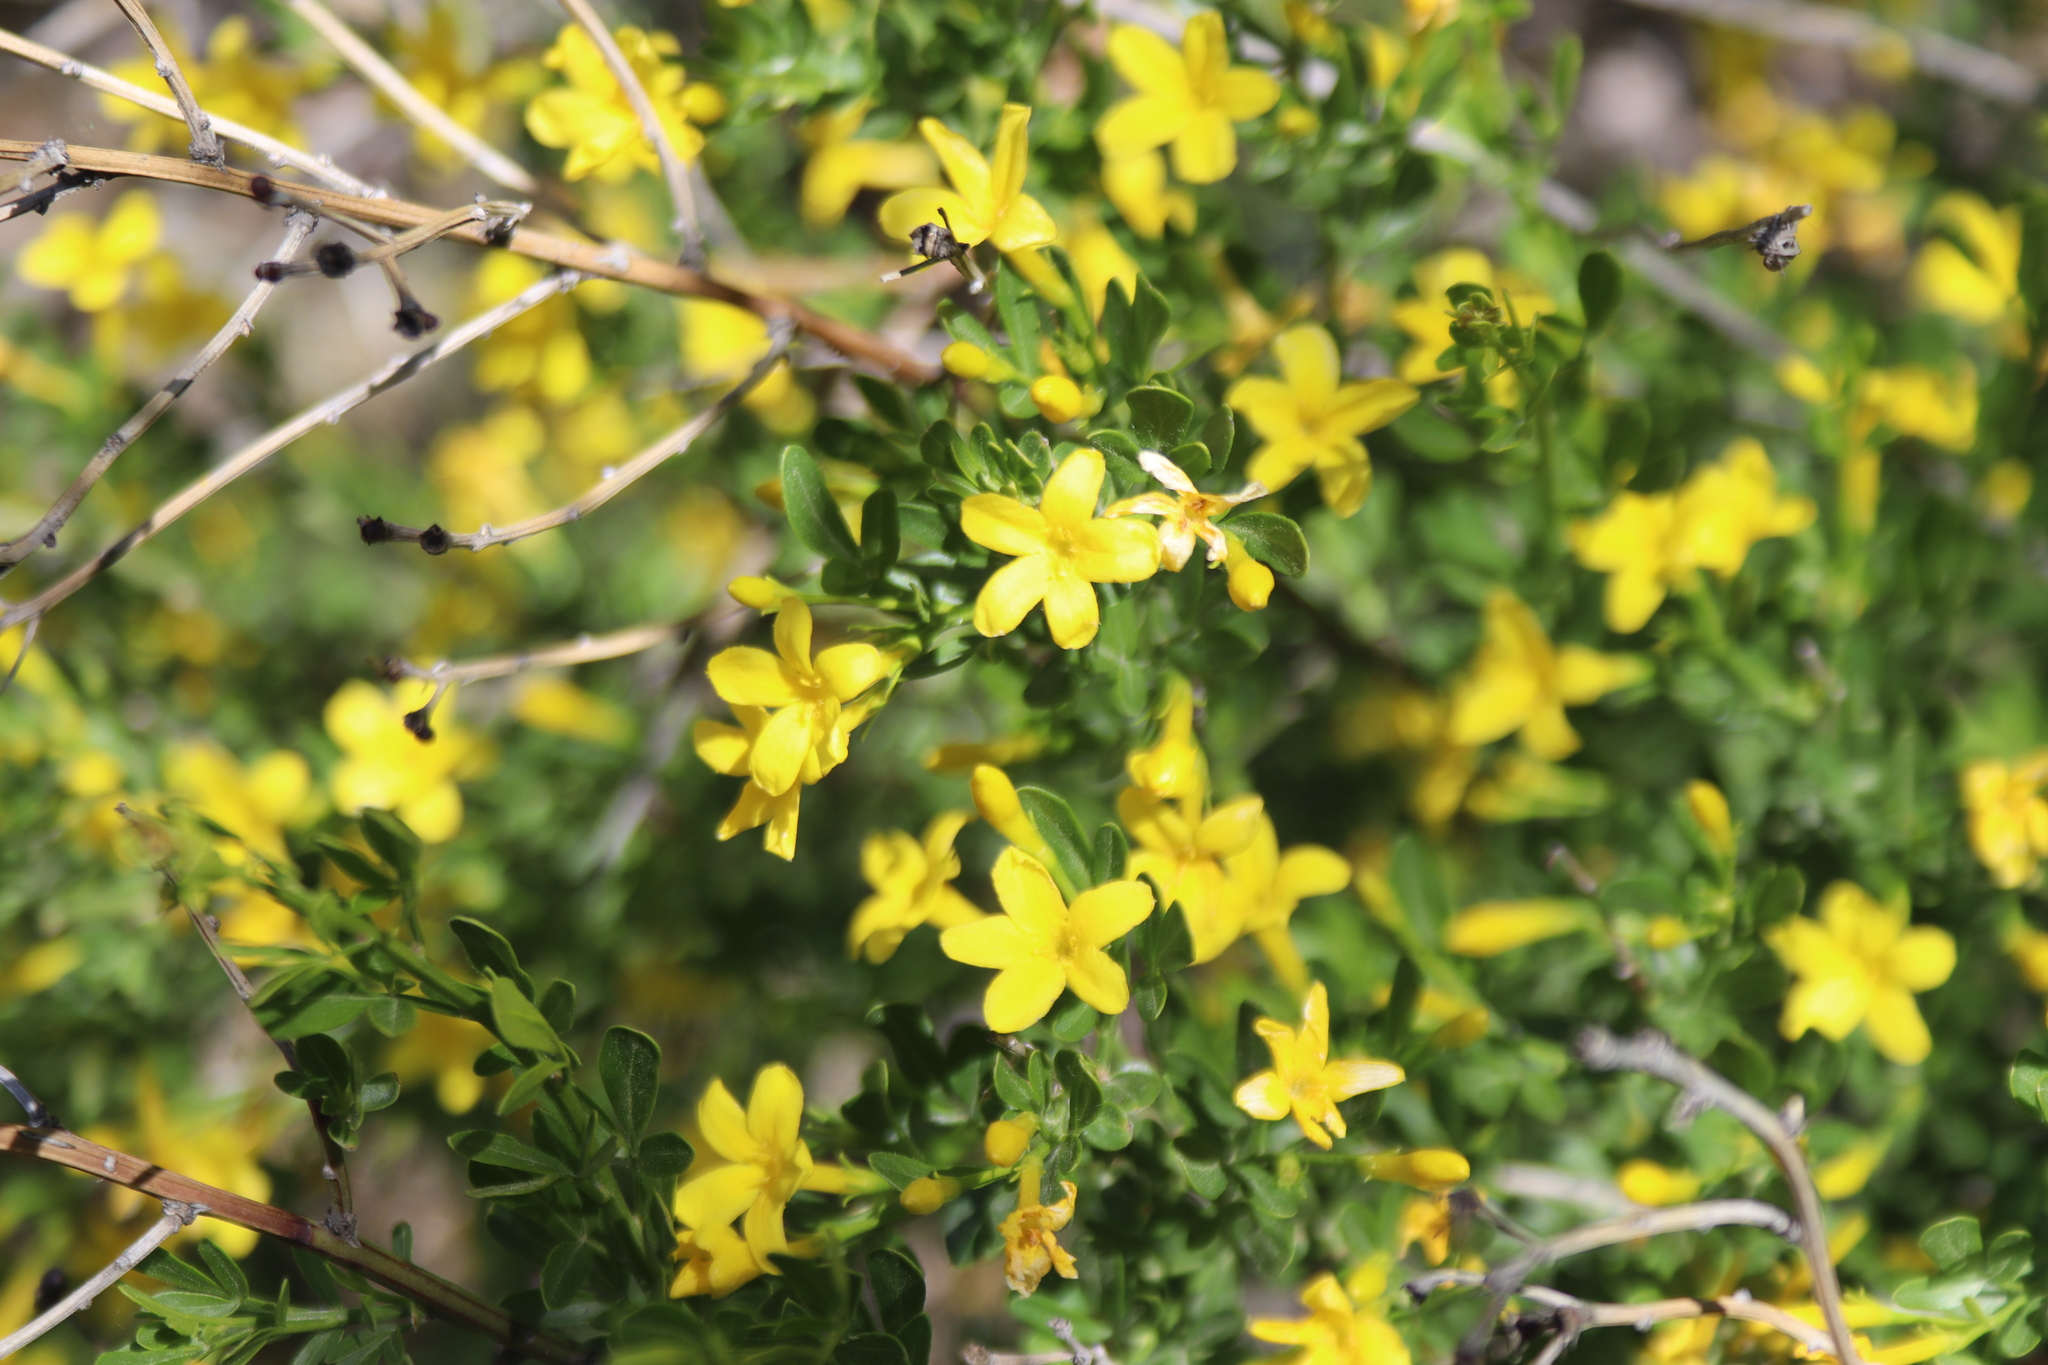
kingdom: Plantae
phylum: Tracheophyta
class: Magnoliopsida
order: Lamiales
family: Oleaceae
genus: Chrysojasminum
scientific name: Chrysojasminum fruticans
